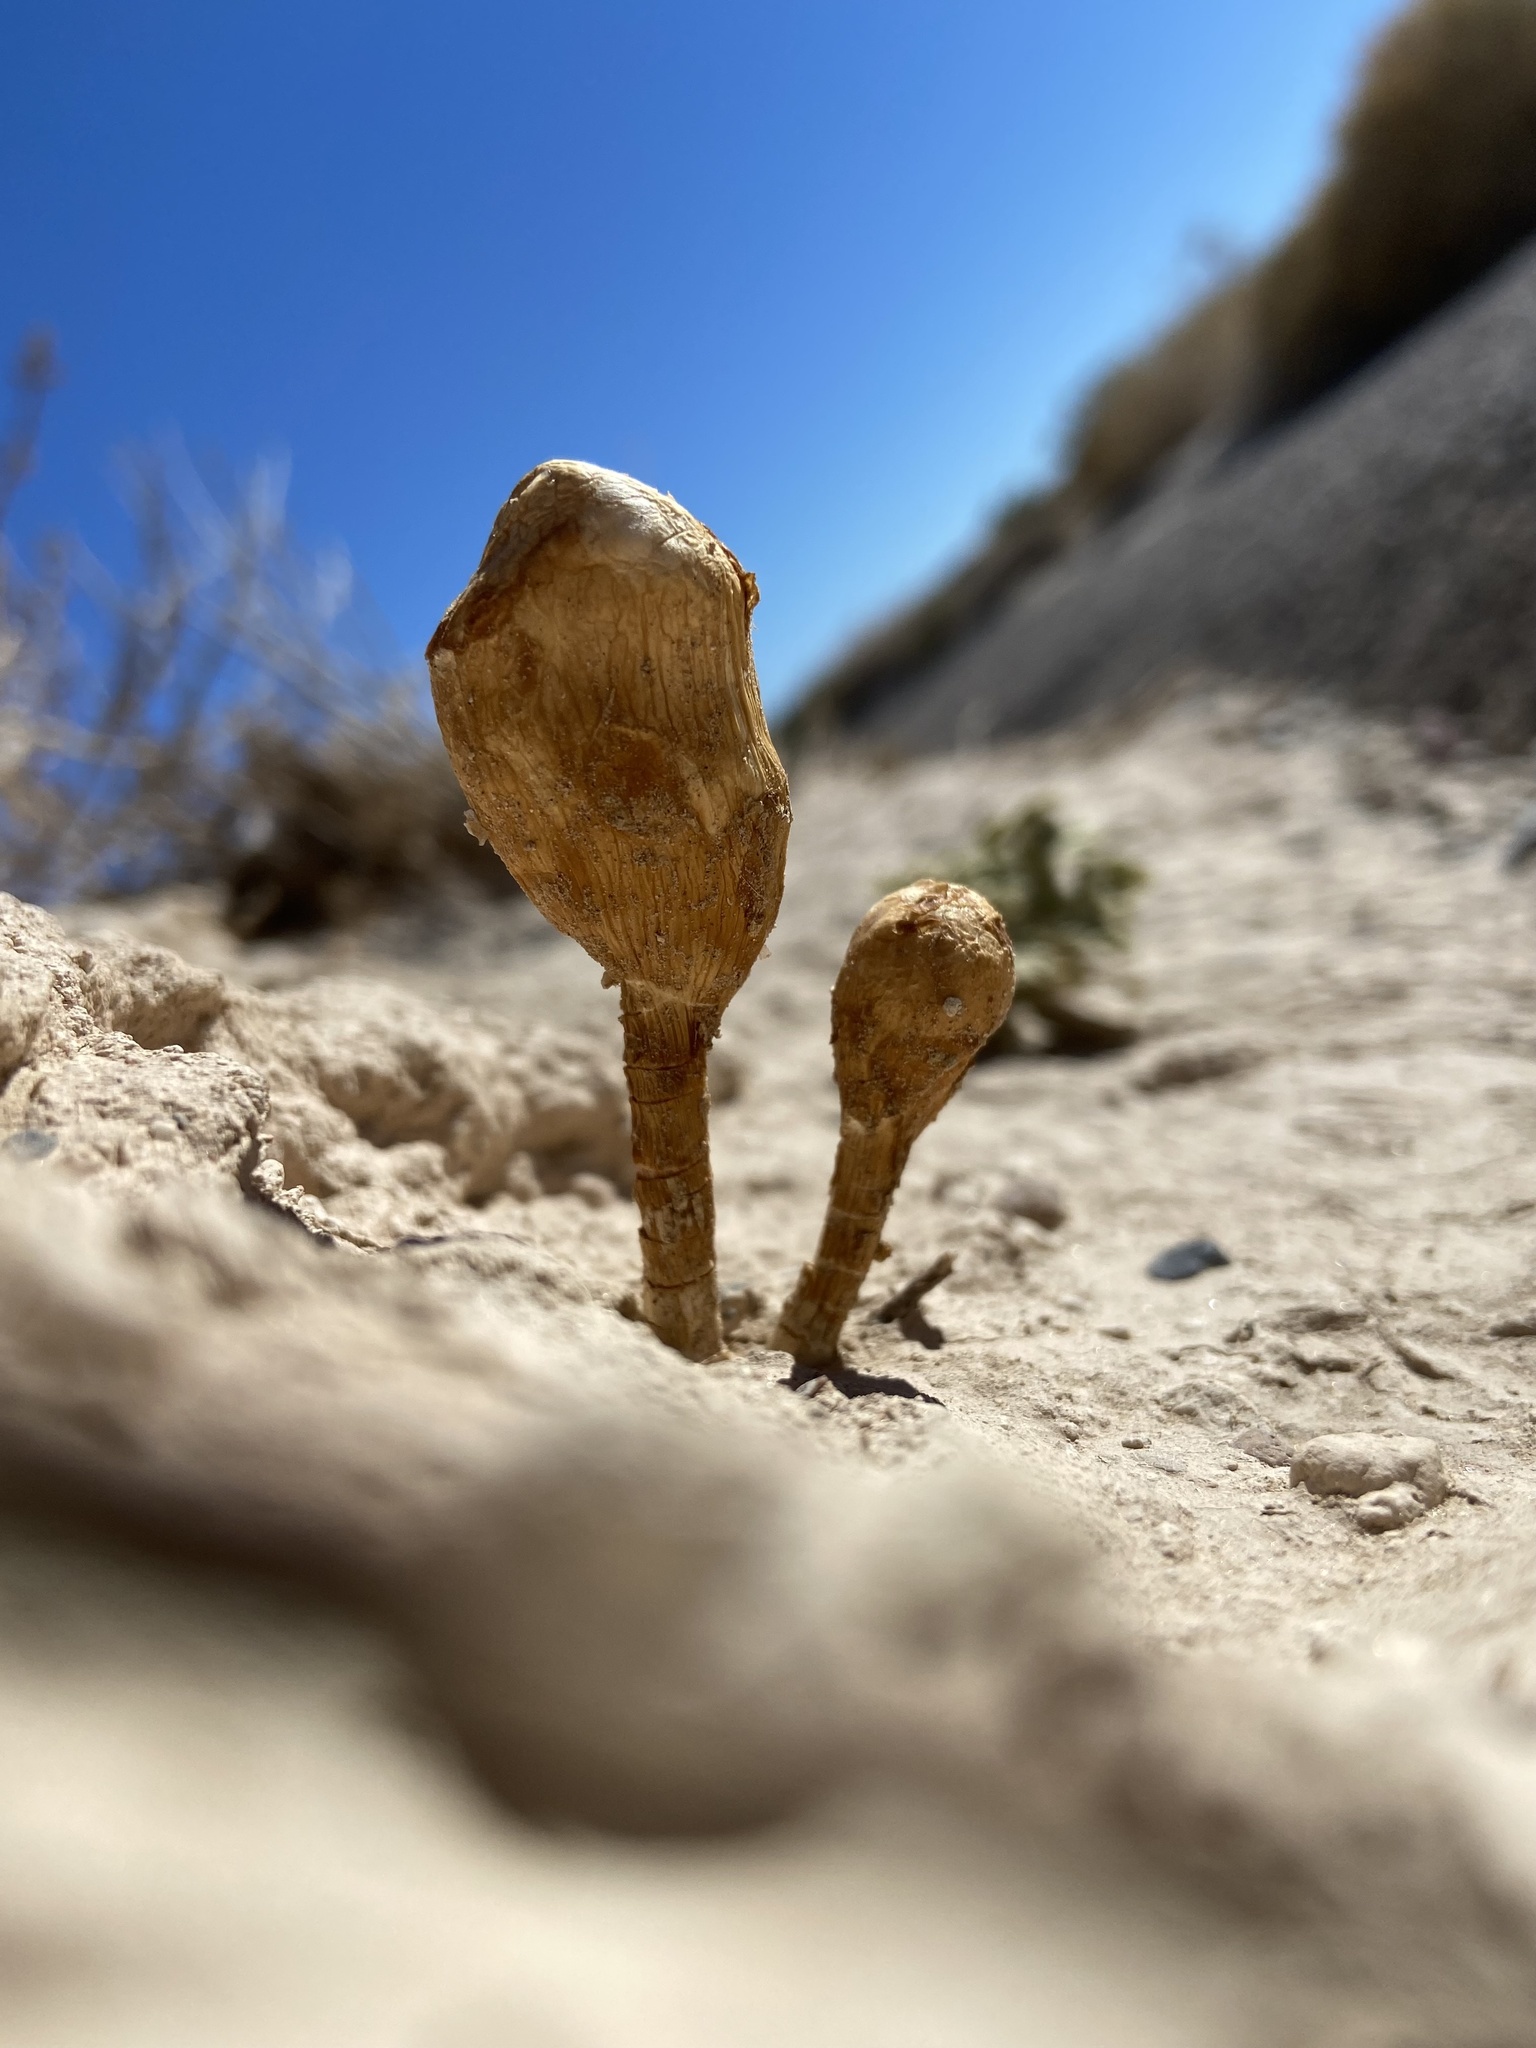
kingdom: Fungi
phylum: Basidiomycota
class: Agaricomycetes
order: Agaricales
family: Agaricaceae
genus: Podaxis
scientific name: Podaxis pistillaris
